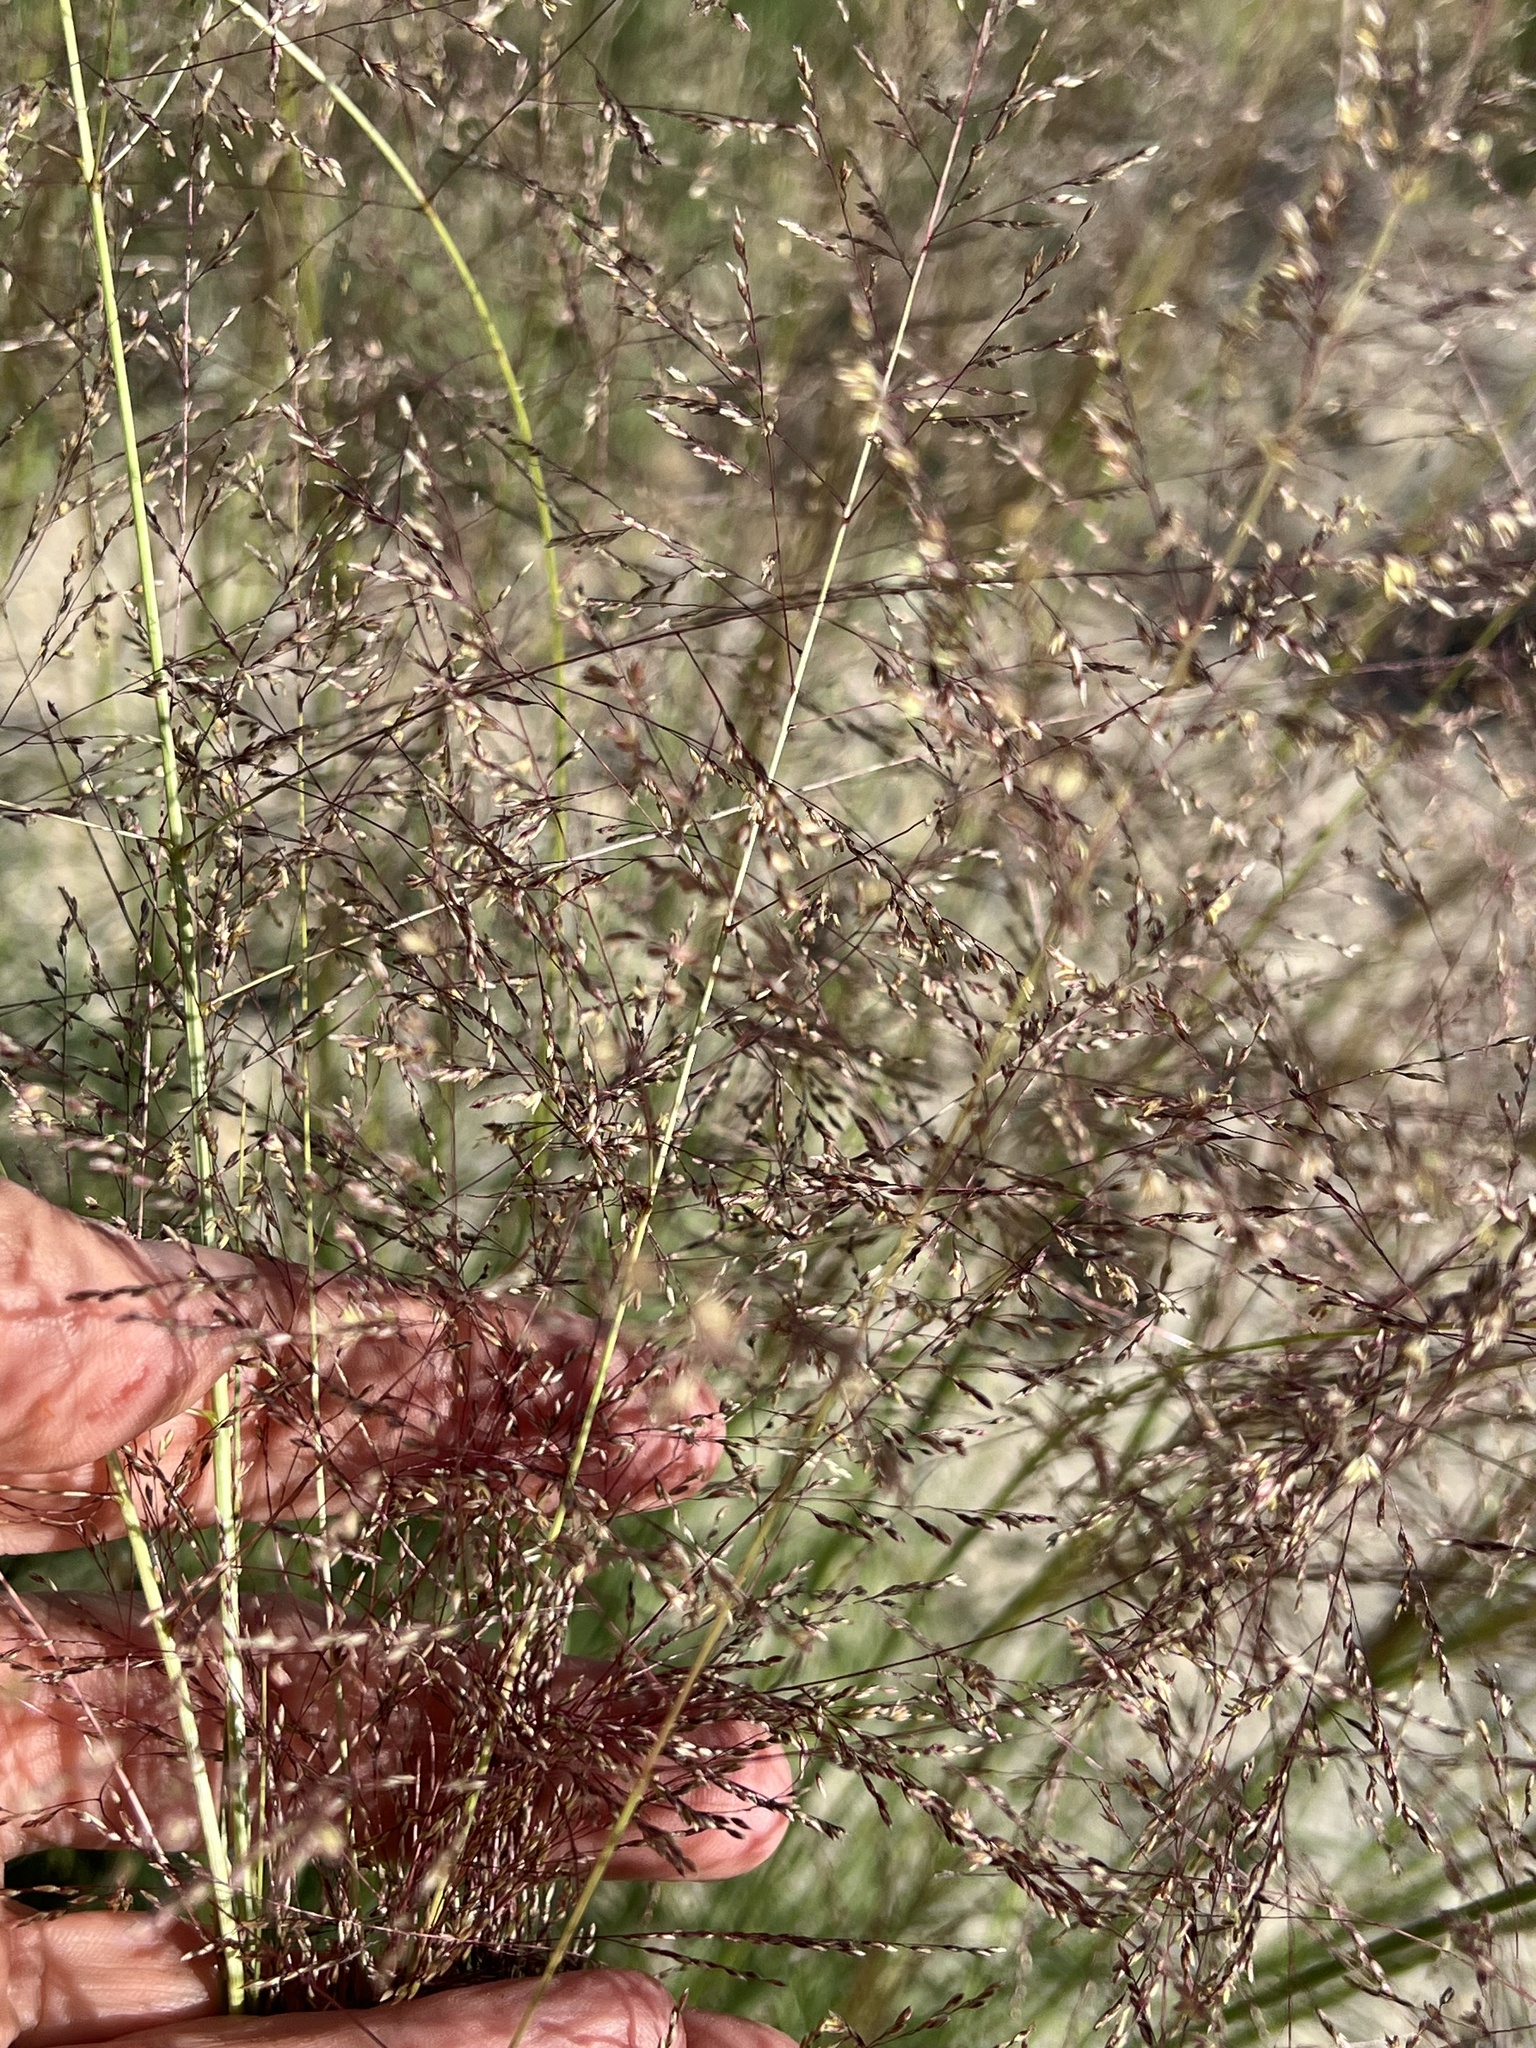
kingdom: Plantae
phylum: Tracheophyta
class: Liliopsida
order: Poales
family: Poaceae
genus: Sporobolus
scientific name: Sporobolus airoides
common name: Alkali sacaton
